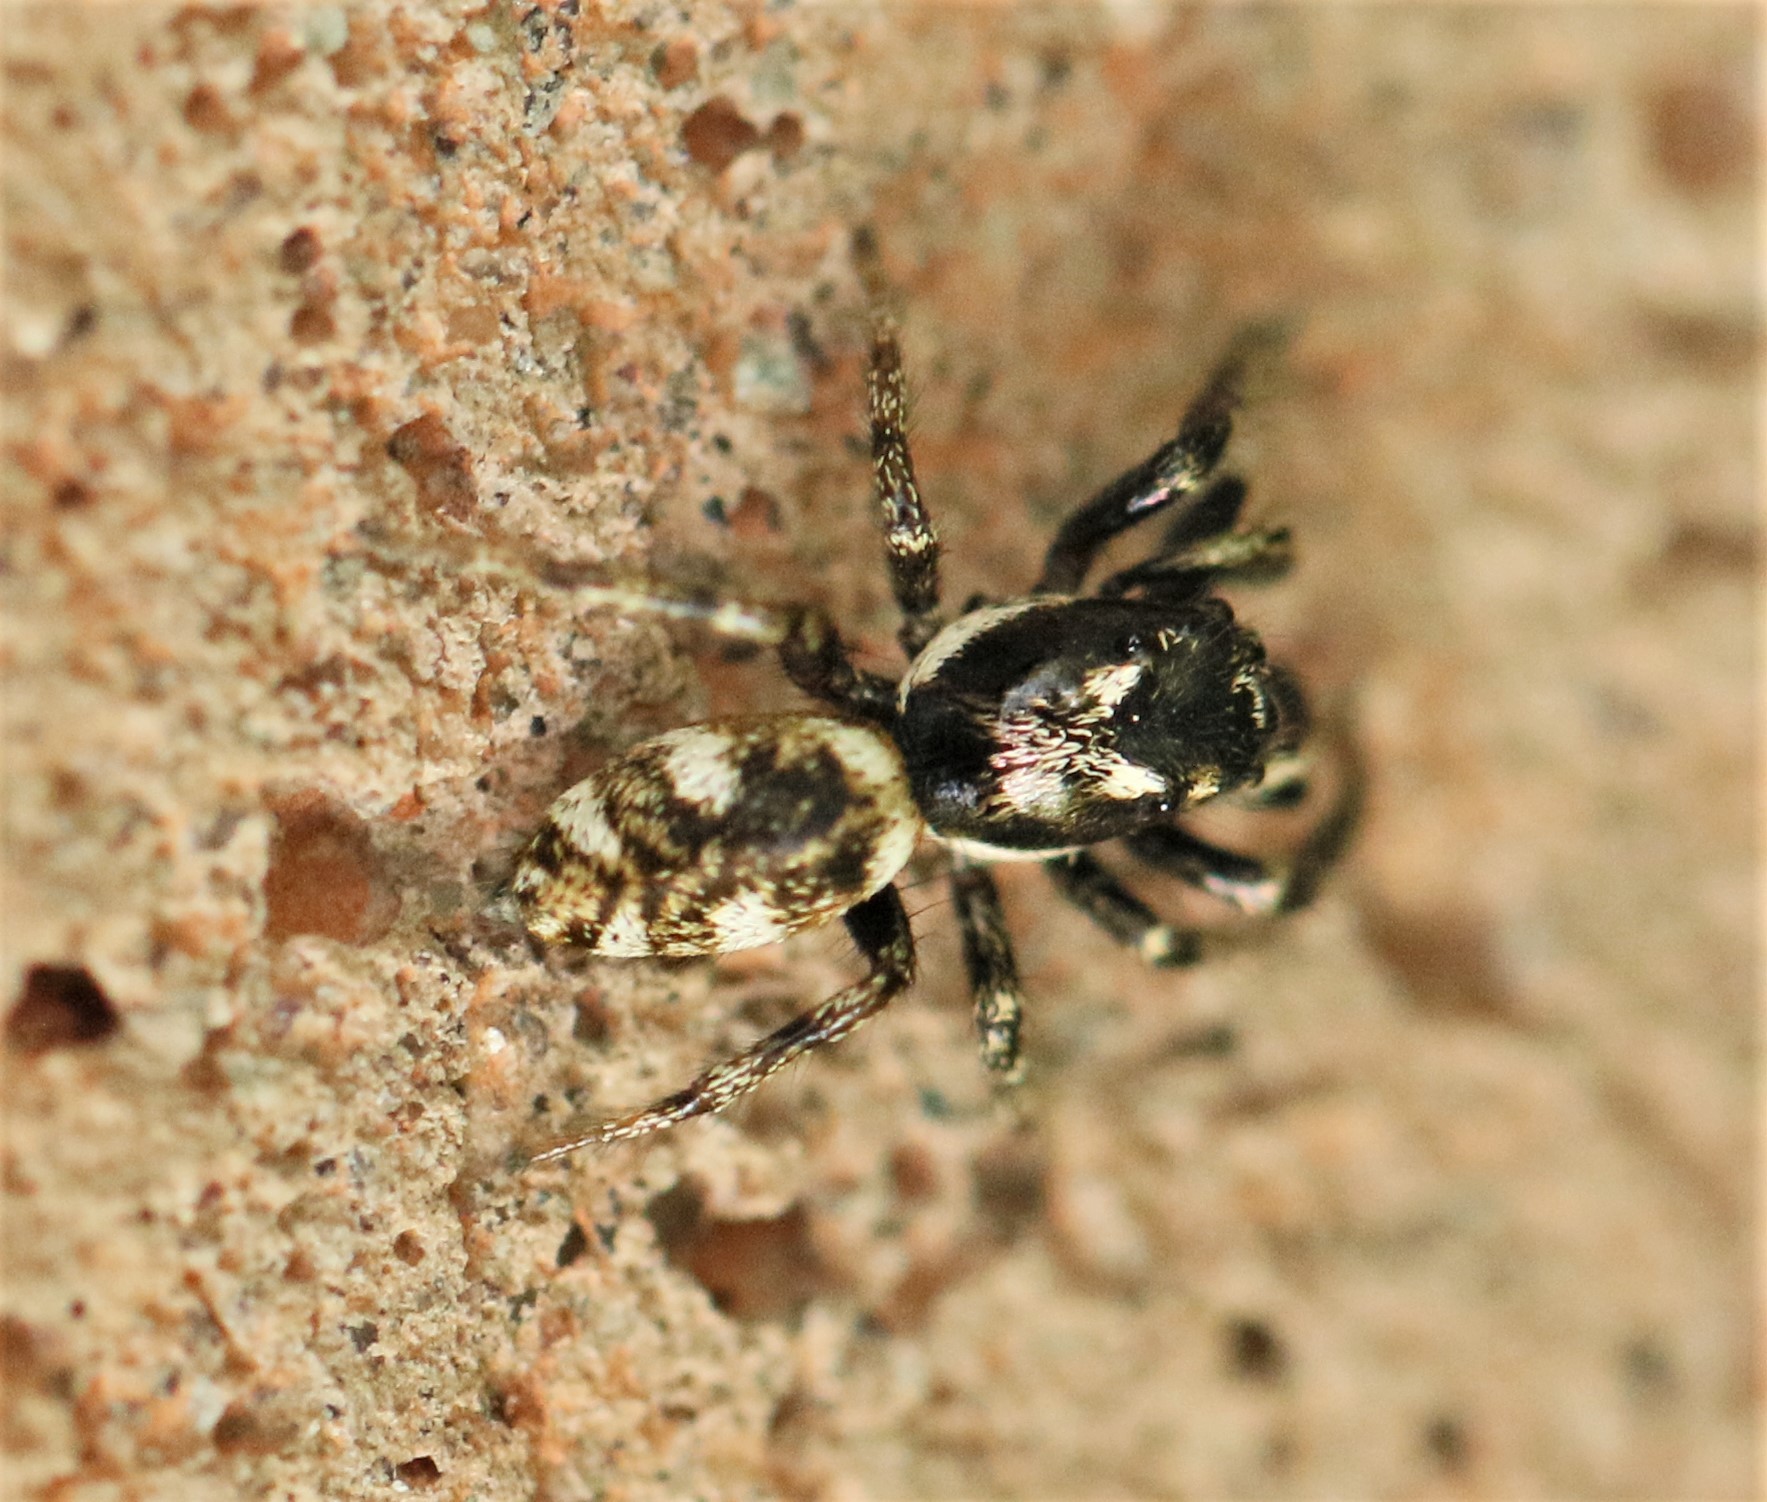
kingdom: Animalia
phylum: Arthropoda
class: Arachnida
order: Araneae
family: Salticidae
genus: Salticus
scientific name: Salticus scenicus
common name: Zebra jumper
